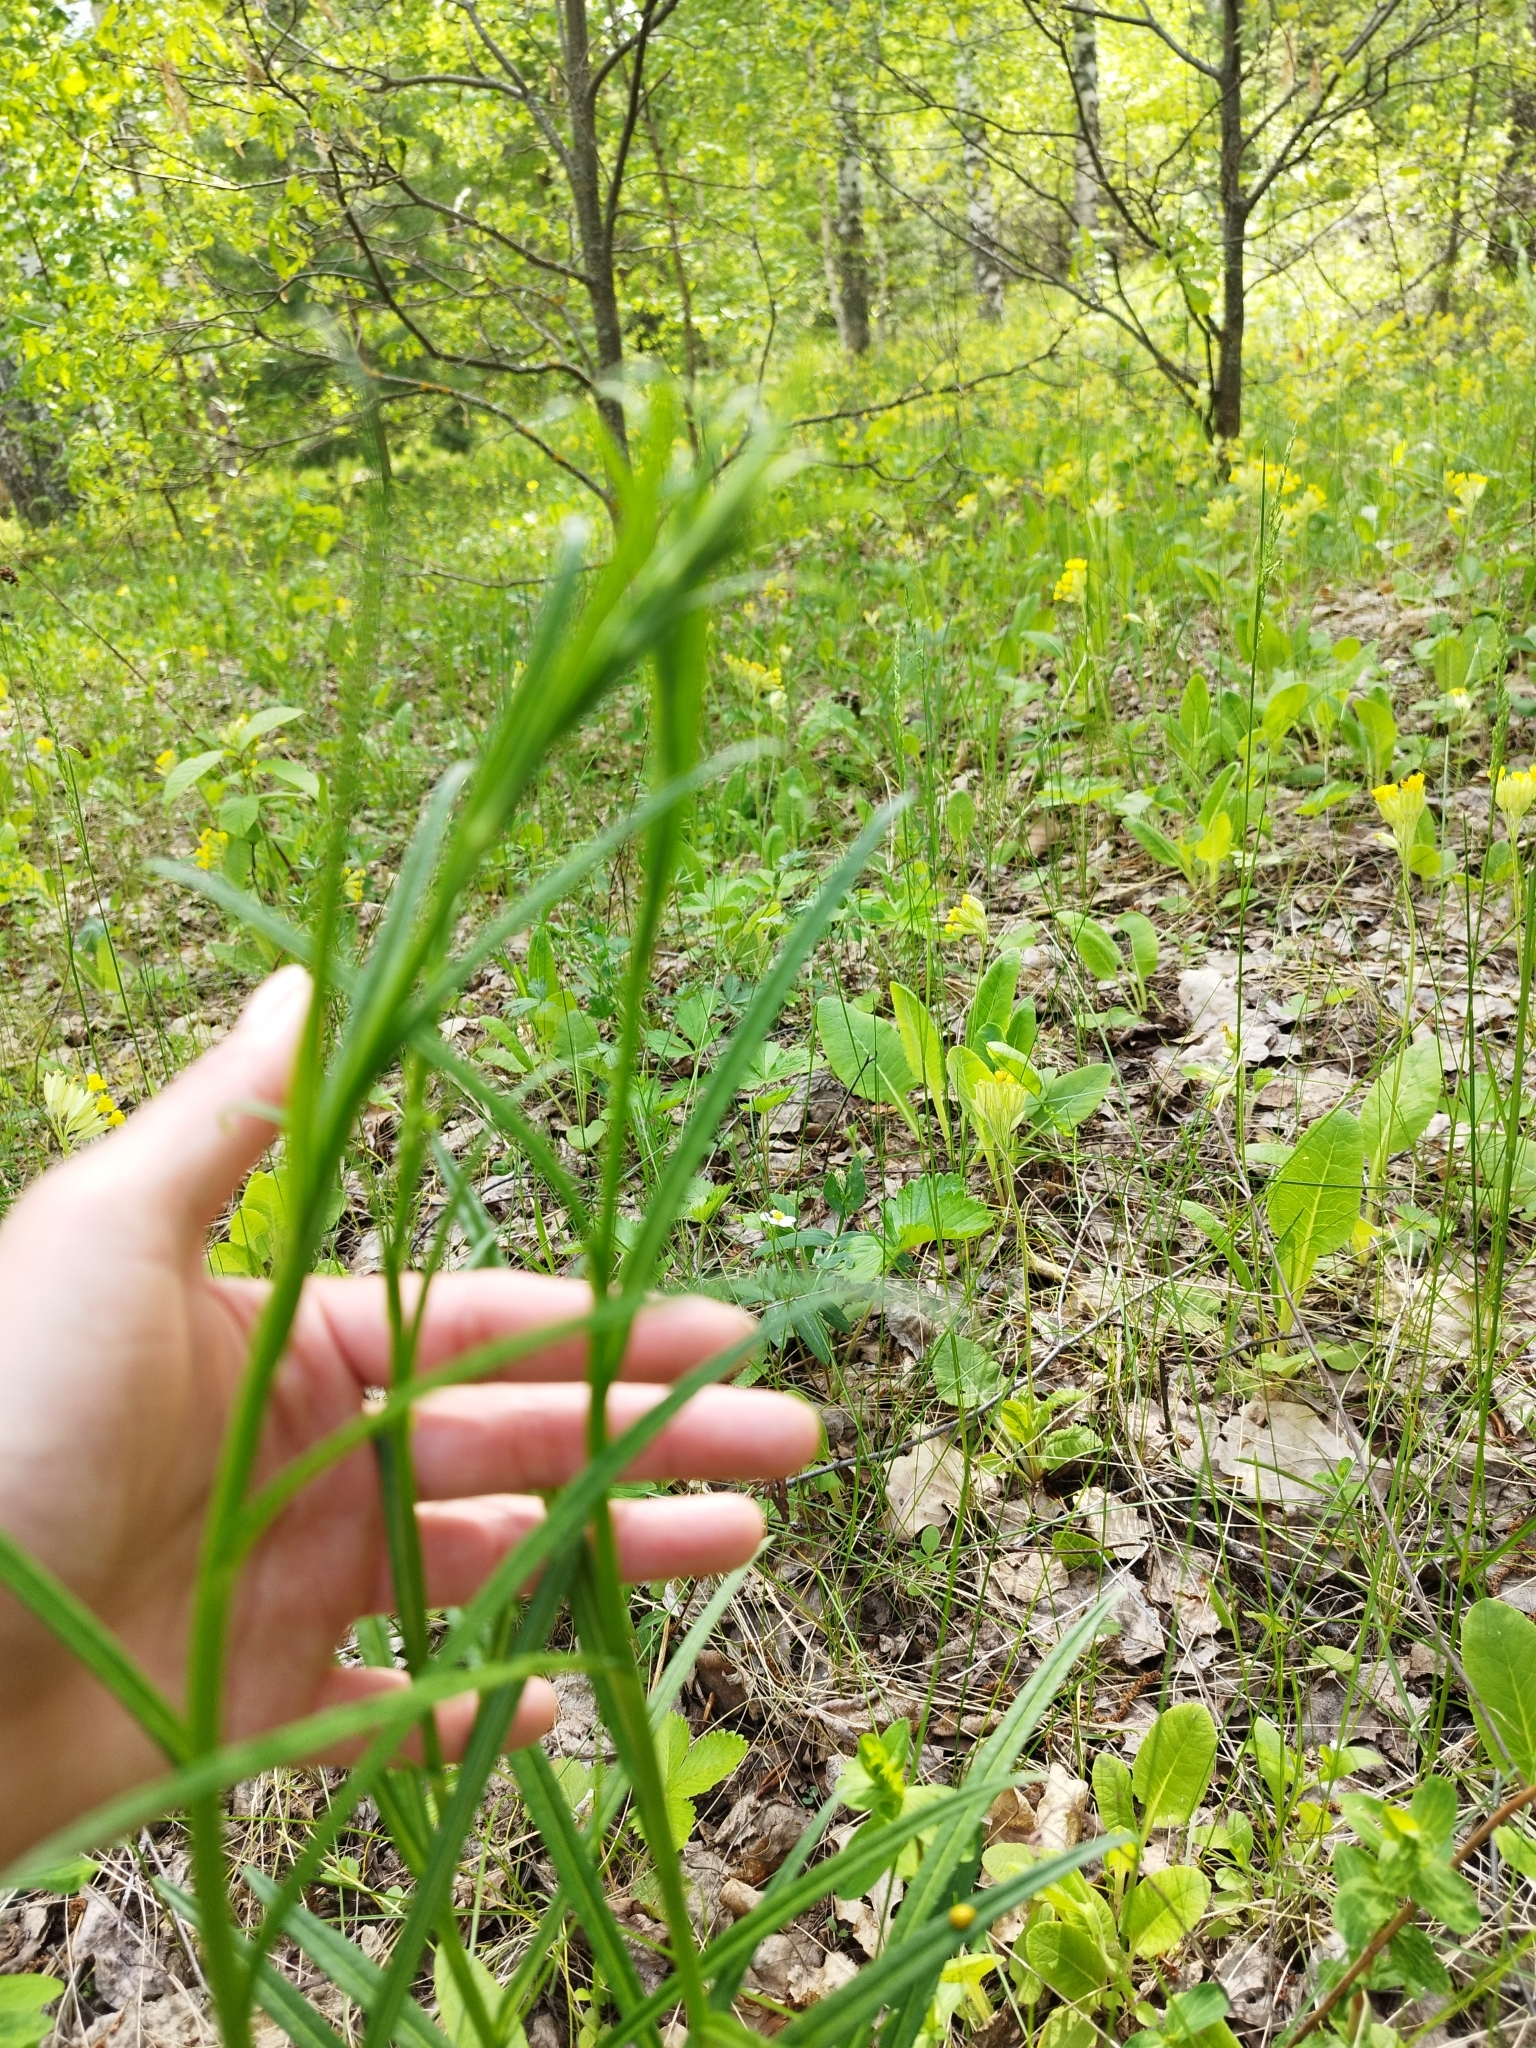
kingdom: Plantae
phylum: Tracheophyta
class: Magnoliopsida
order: Asterales
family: Campanulaceae
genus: Campanula
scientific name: Campanula persicifolia
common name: Peach-leaved bellflower
